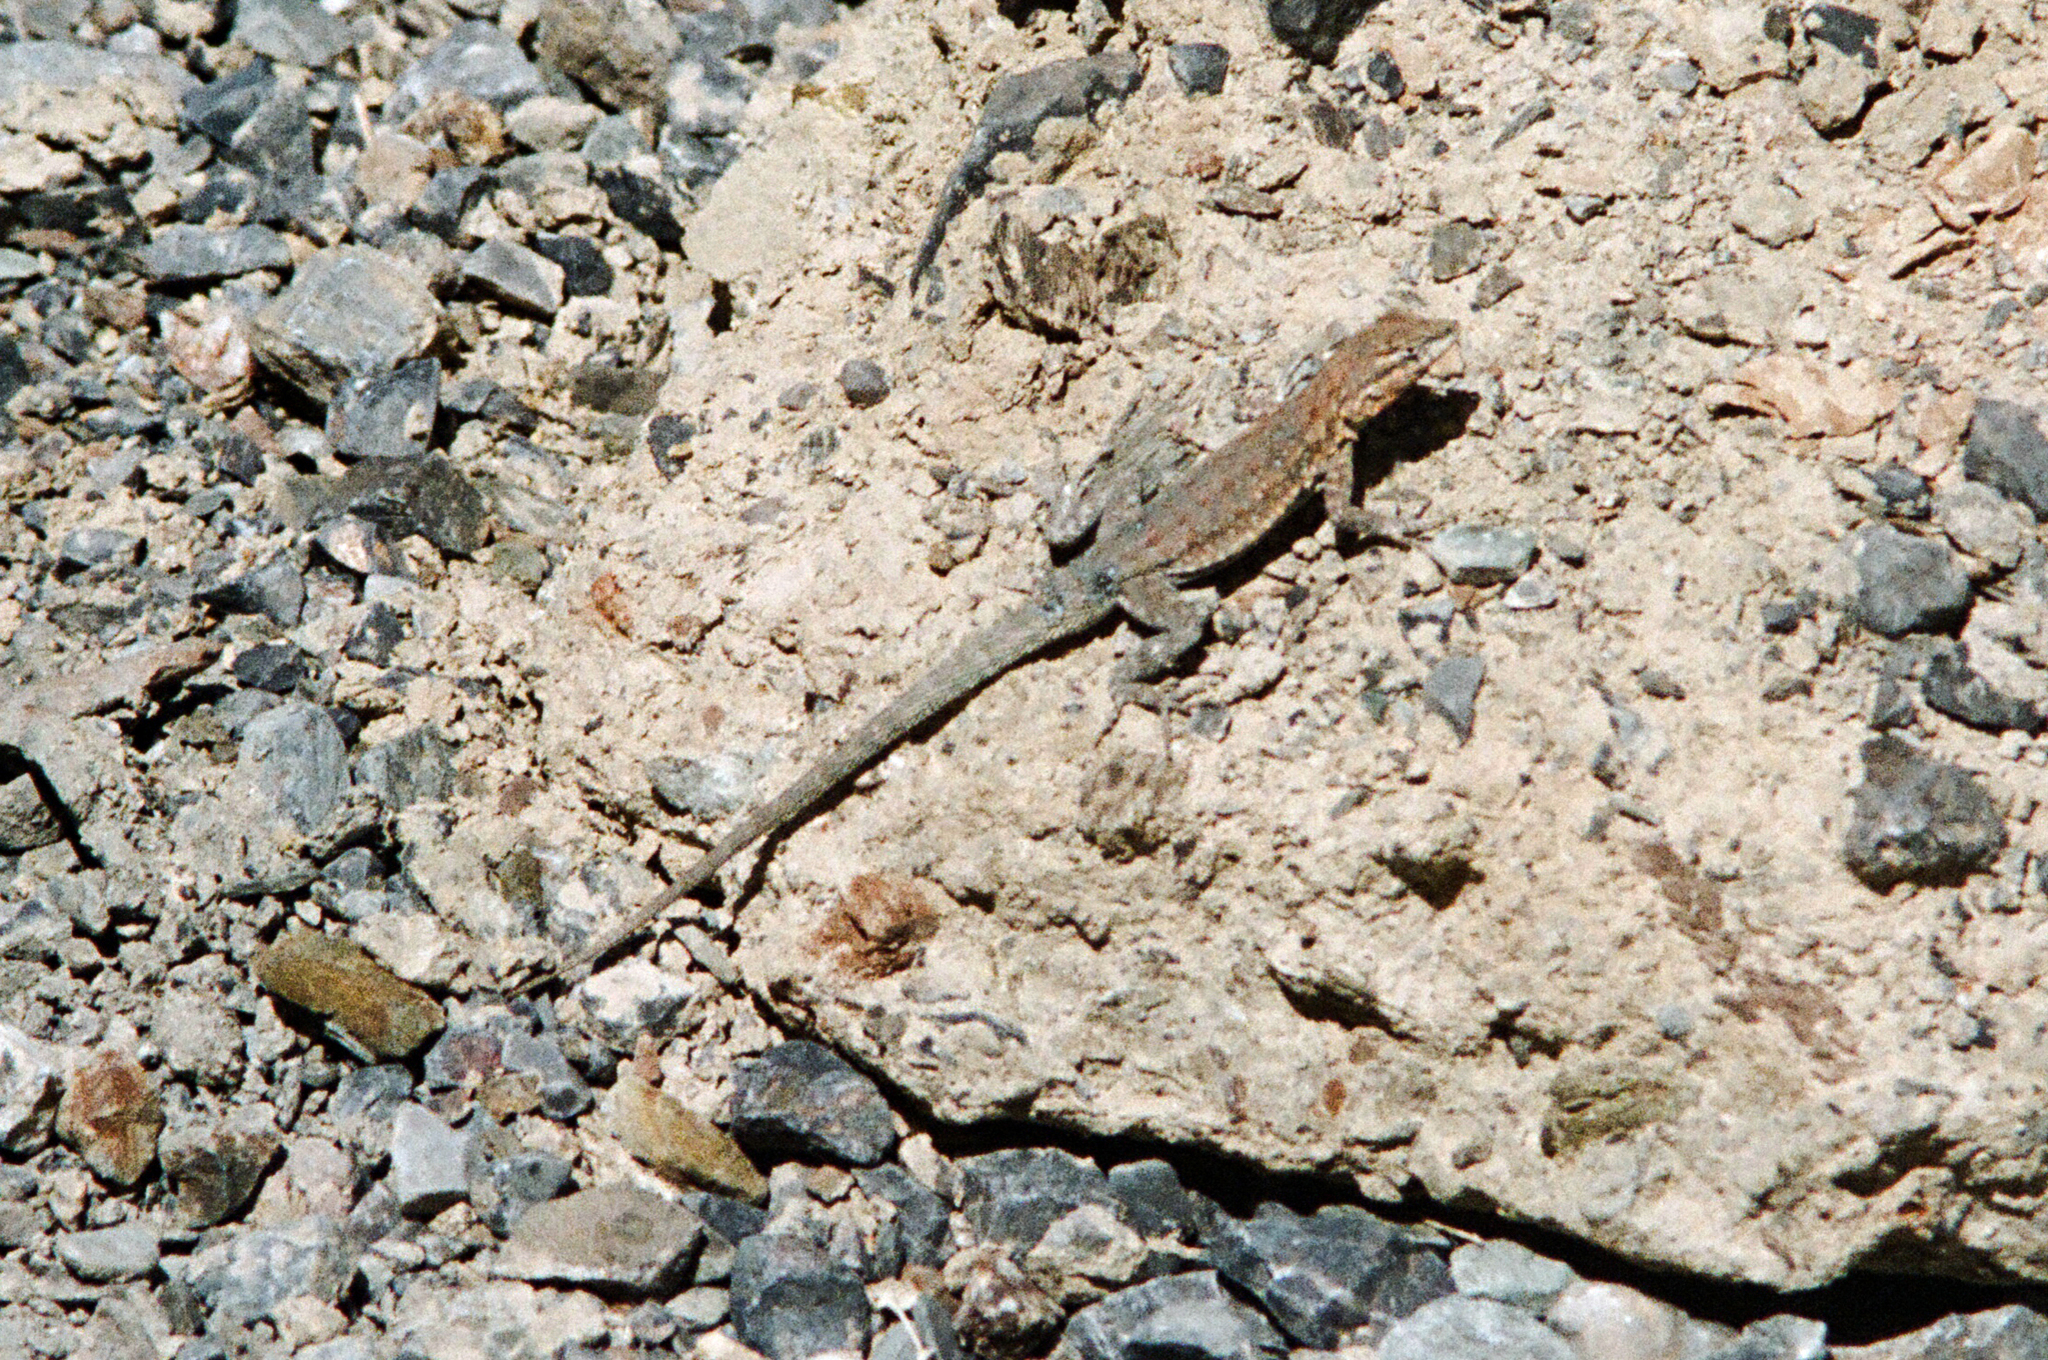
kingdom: Animalia
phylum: Chordata
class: Squamata
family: Phrynosomatidae
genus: Uta
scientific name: Uta stansburiana
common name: Side-blotched lizard
